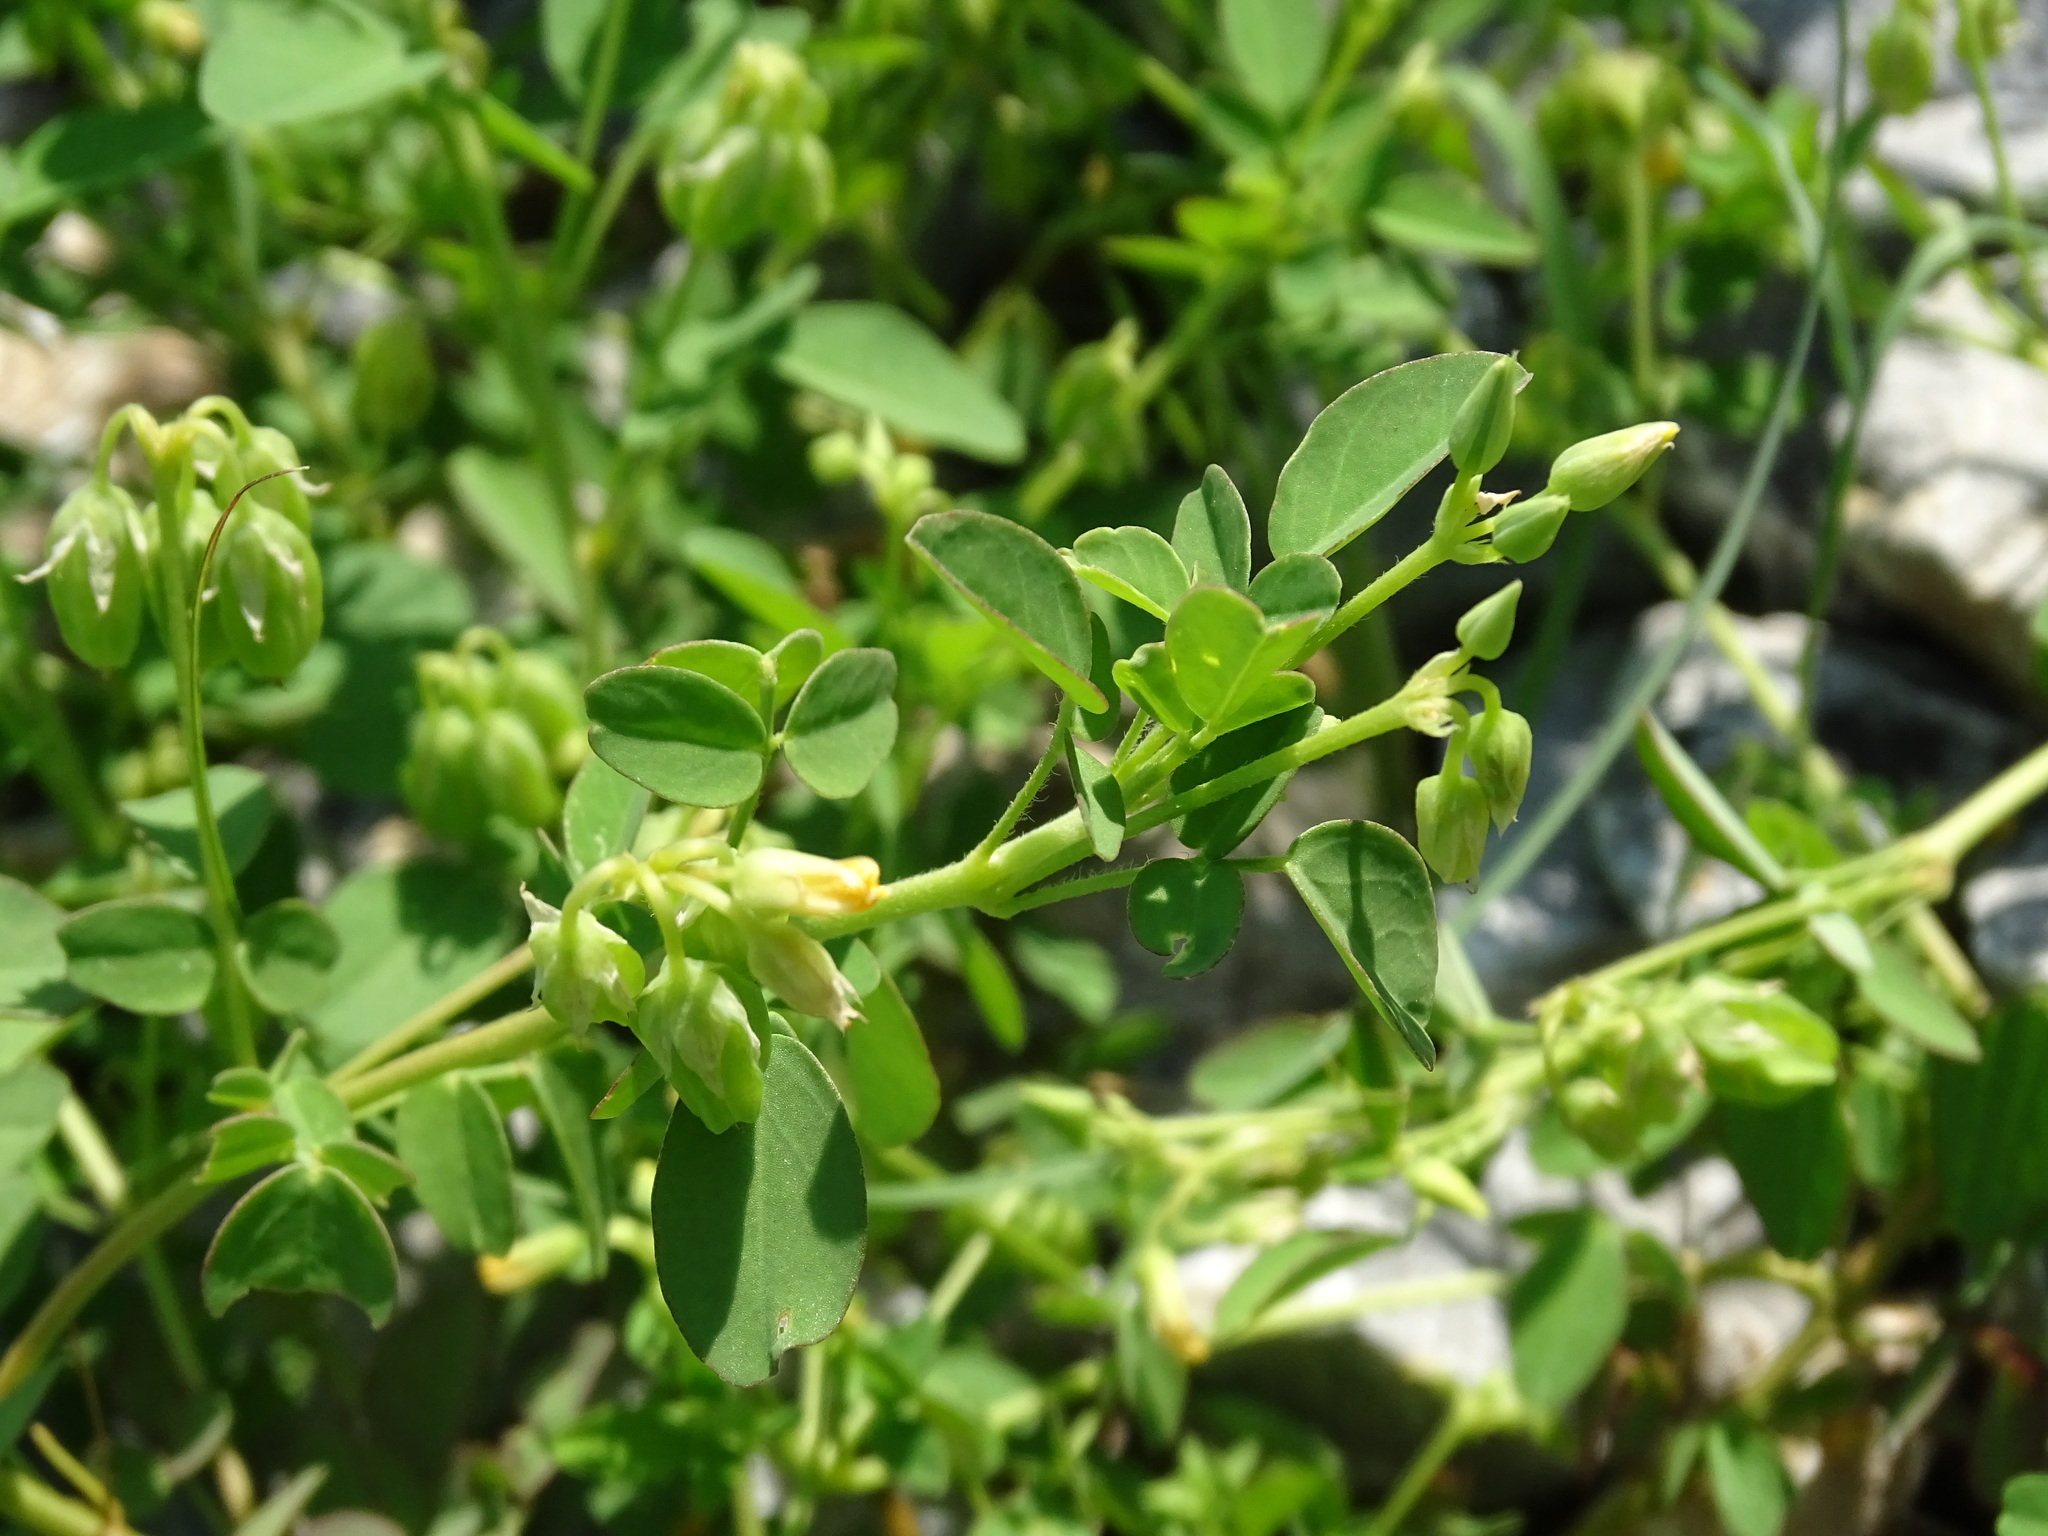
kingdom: Plantae
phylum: Tracheophyta
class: Magnoliopsida
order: Oxalidales
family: Oxalidaceae
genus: Oxalis
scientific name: Oxalis frutescens
